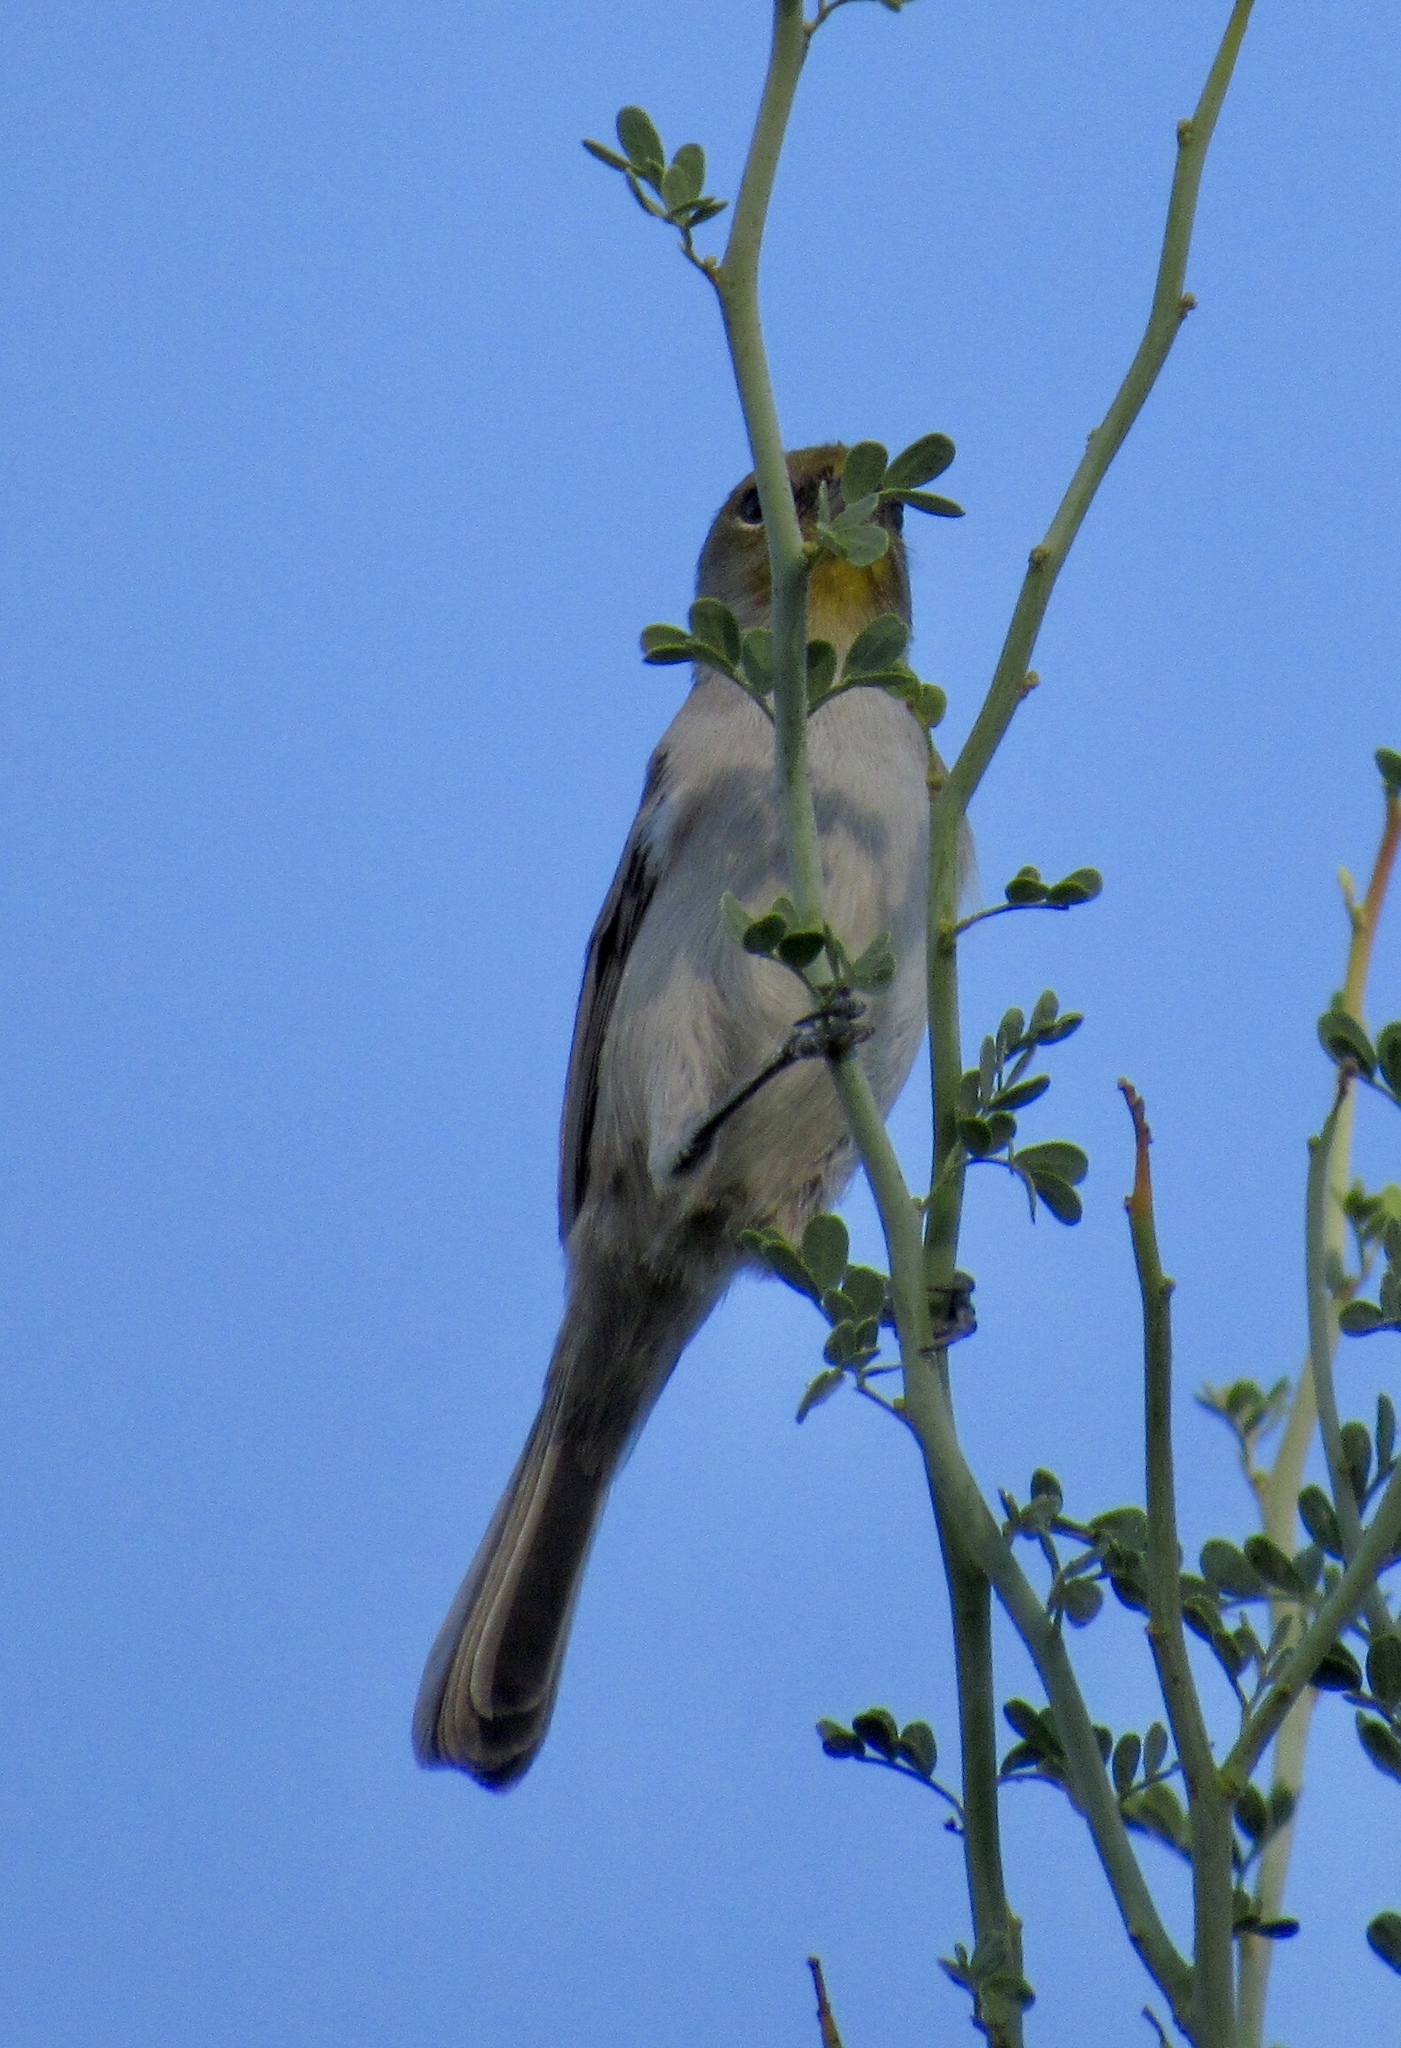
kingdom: Animalia
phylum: Chordata
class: Aves
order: Passeriformes
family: Remizidae
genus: Auriparus
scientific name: Auriparus flaviceps
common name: Verdin
